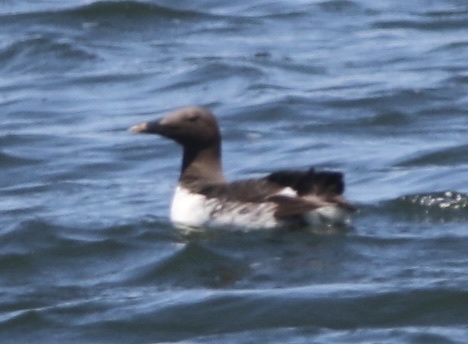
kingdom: Animalia
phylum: Chordata
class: Aves
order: Charadriiformes
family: Alcidae
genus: Uria
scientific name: Uria aalge
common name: Common murre
